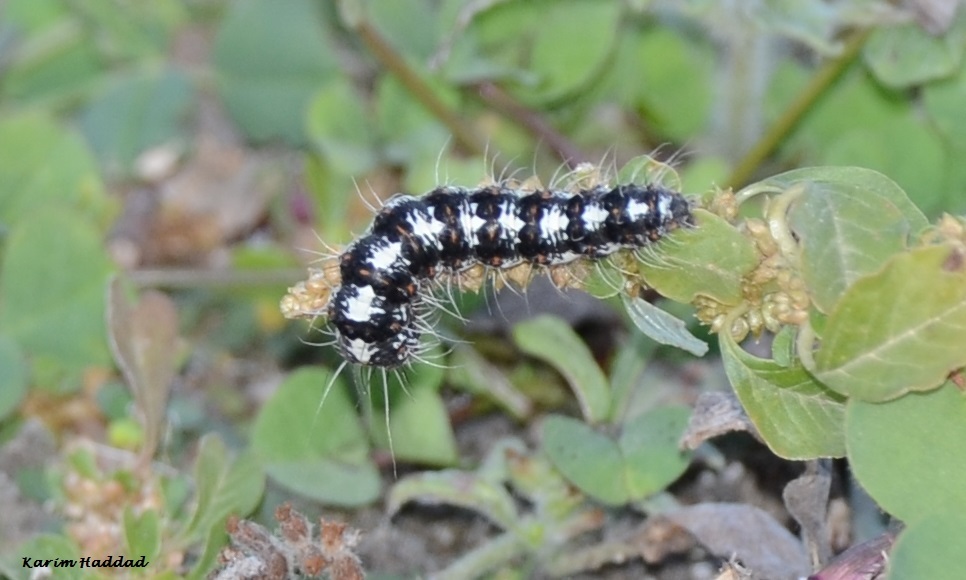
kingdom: Animalia
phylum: Arthropoda
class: Insecta
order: Lepidoptera
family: Erebidae
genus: Utetheisa
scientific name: Utetheisa pulchella
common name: Crimson speckled
